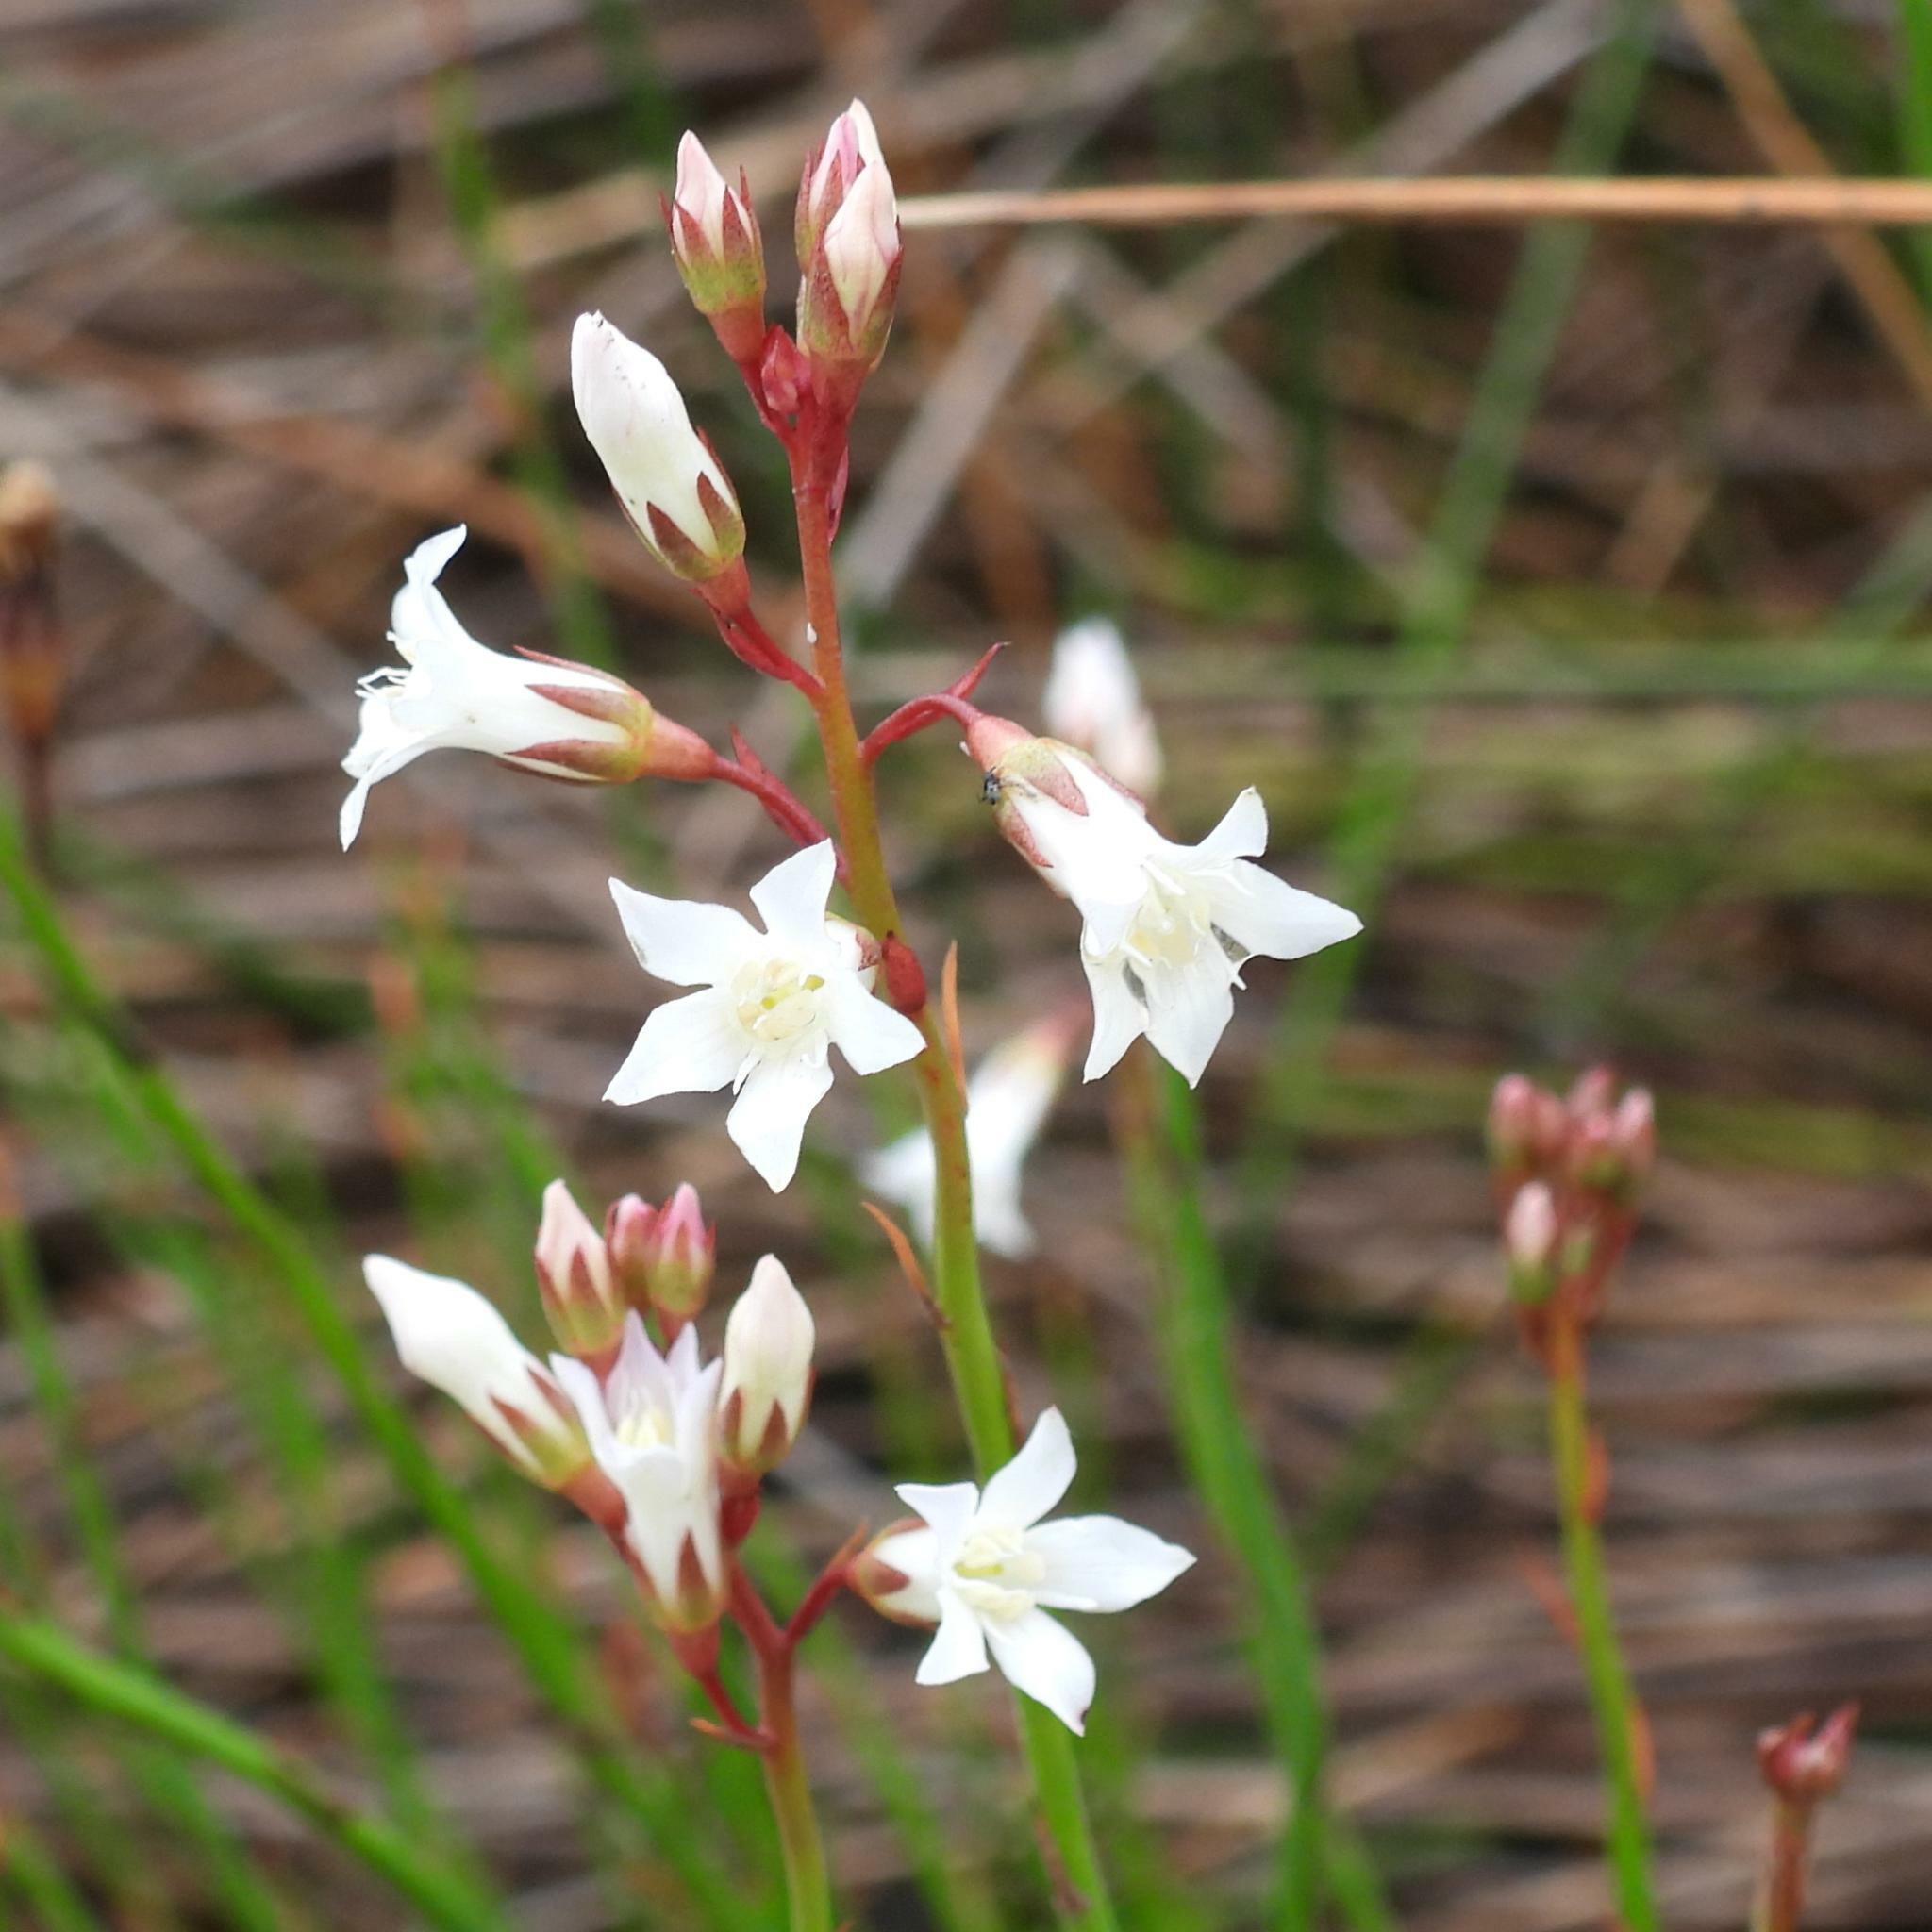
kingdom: Plantae
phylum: Tracheophyta
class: Magnoliopsida
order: Ericales
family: Primulaceae
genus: Samolus
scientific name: Samolus porosus
